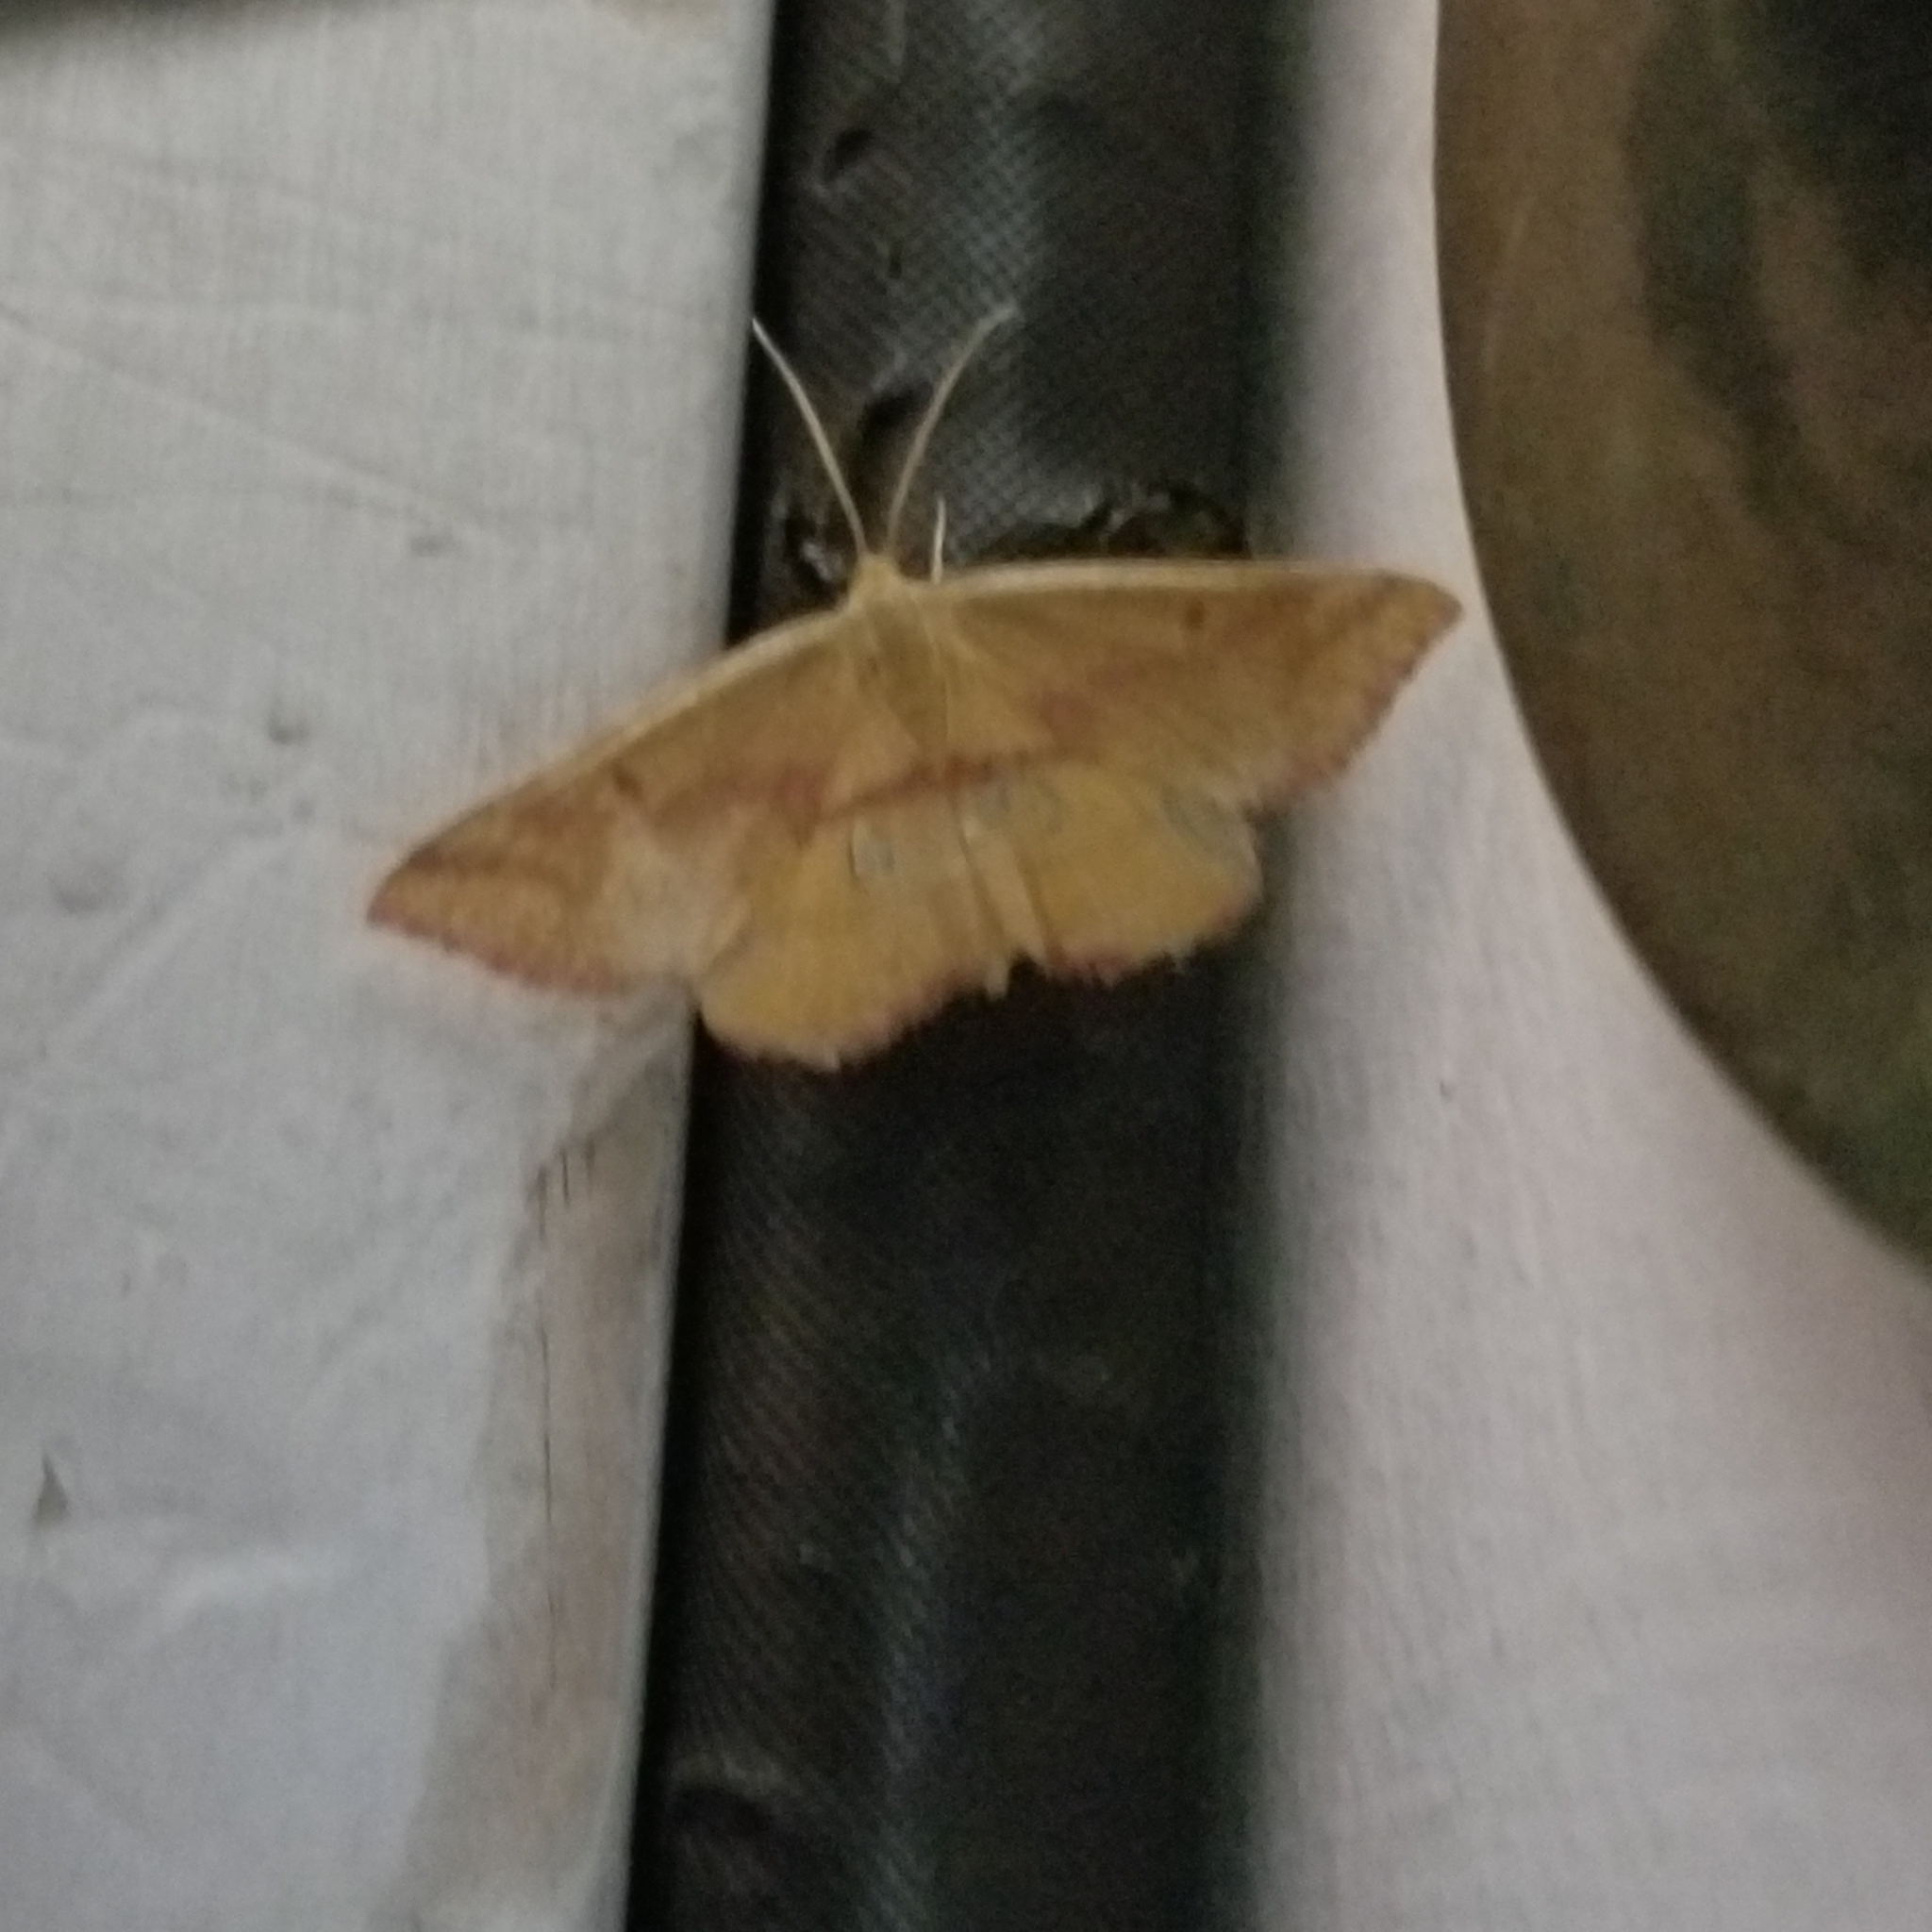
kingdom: Animalia
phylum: Arthropoda
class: Insecta
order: Lepidoptera
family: Geometridae
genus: Haematopis
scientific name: Haematopis grataria
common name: Chickweed geometer
